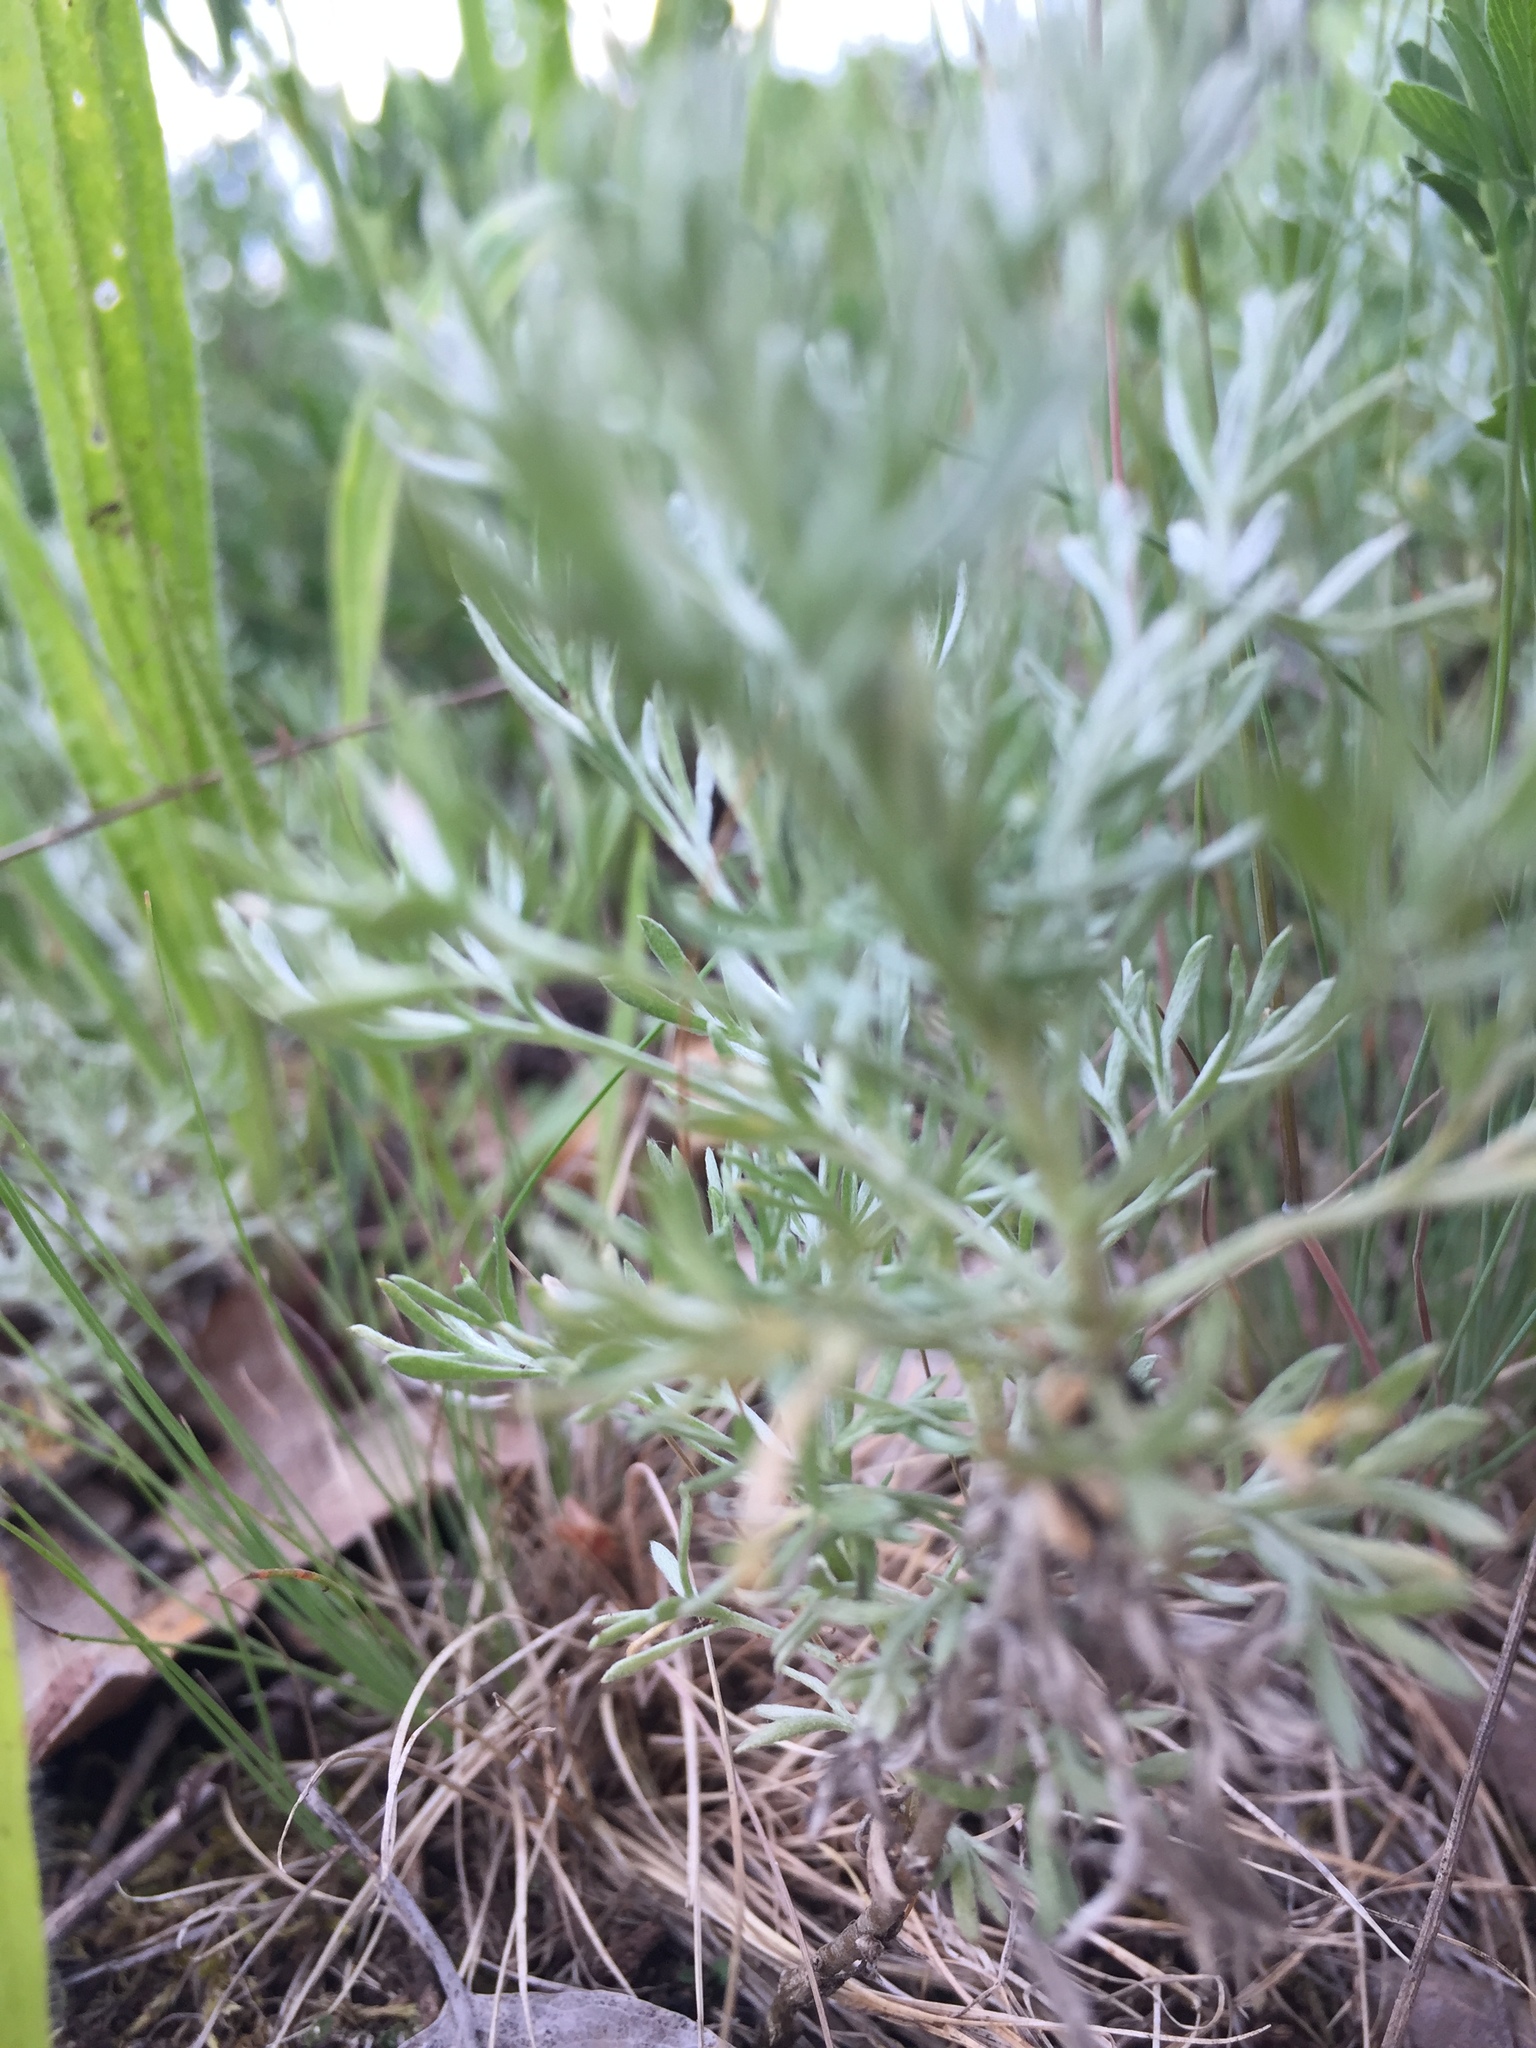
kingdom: Plantae
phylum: Tracheophyta
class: Magnoliopsida
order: Asterales
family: Asteraceae
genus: Artemisia
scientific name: Artemisia austriaca
